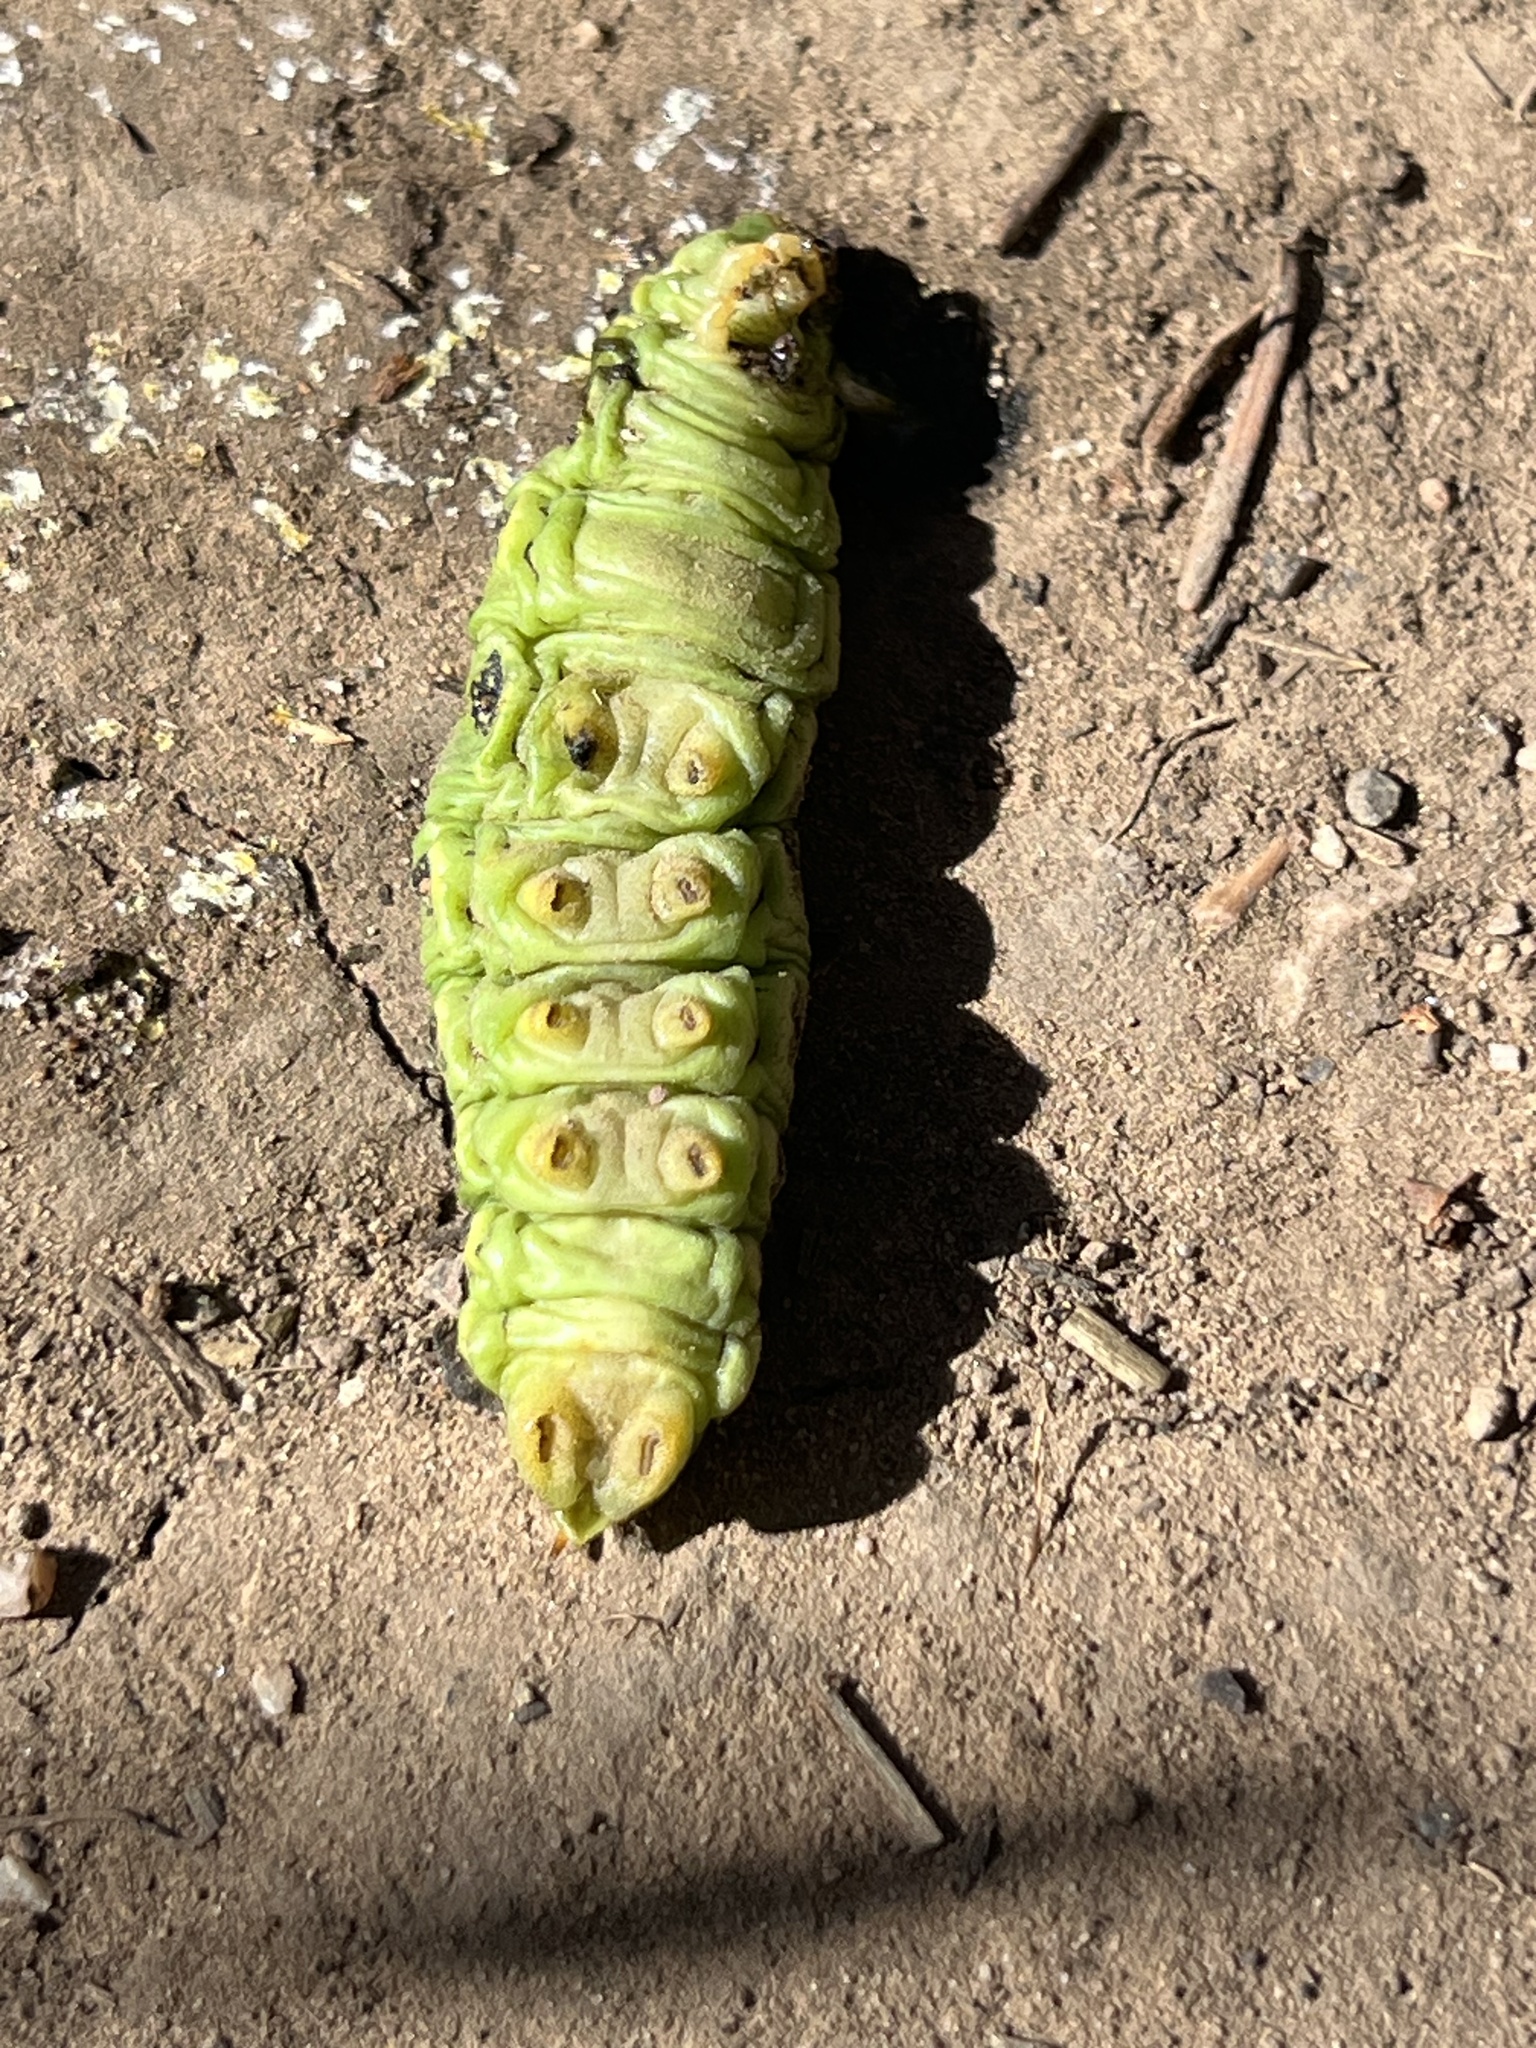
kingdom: Animalia
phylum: Arthropoda
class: Insecta
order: Lepidoptera
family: Sphingidae
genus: Hyles
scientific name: Hyles lineata
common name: White-lined sphinx
